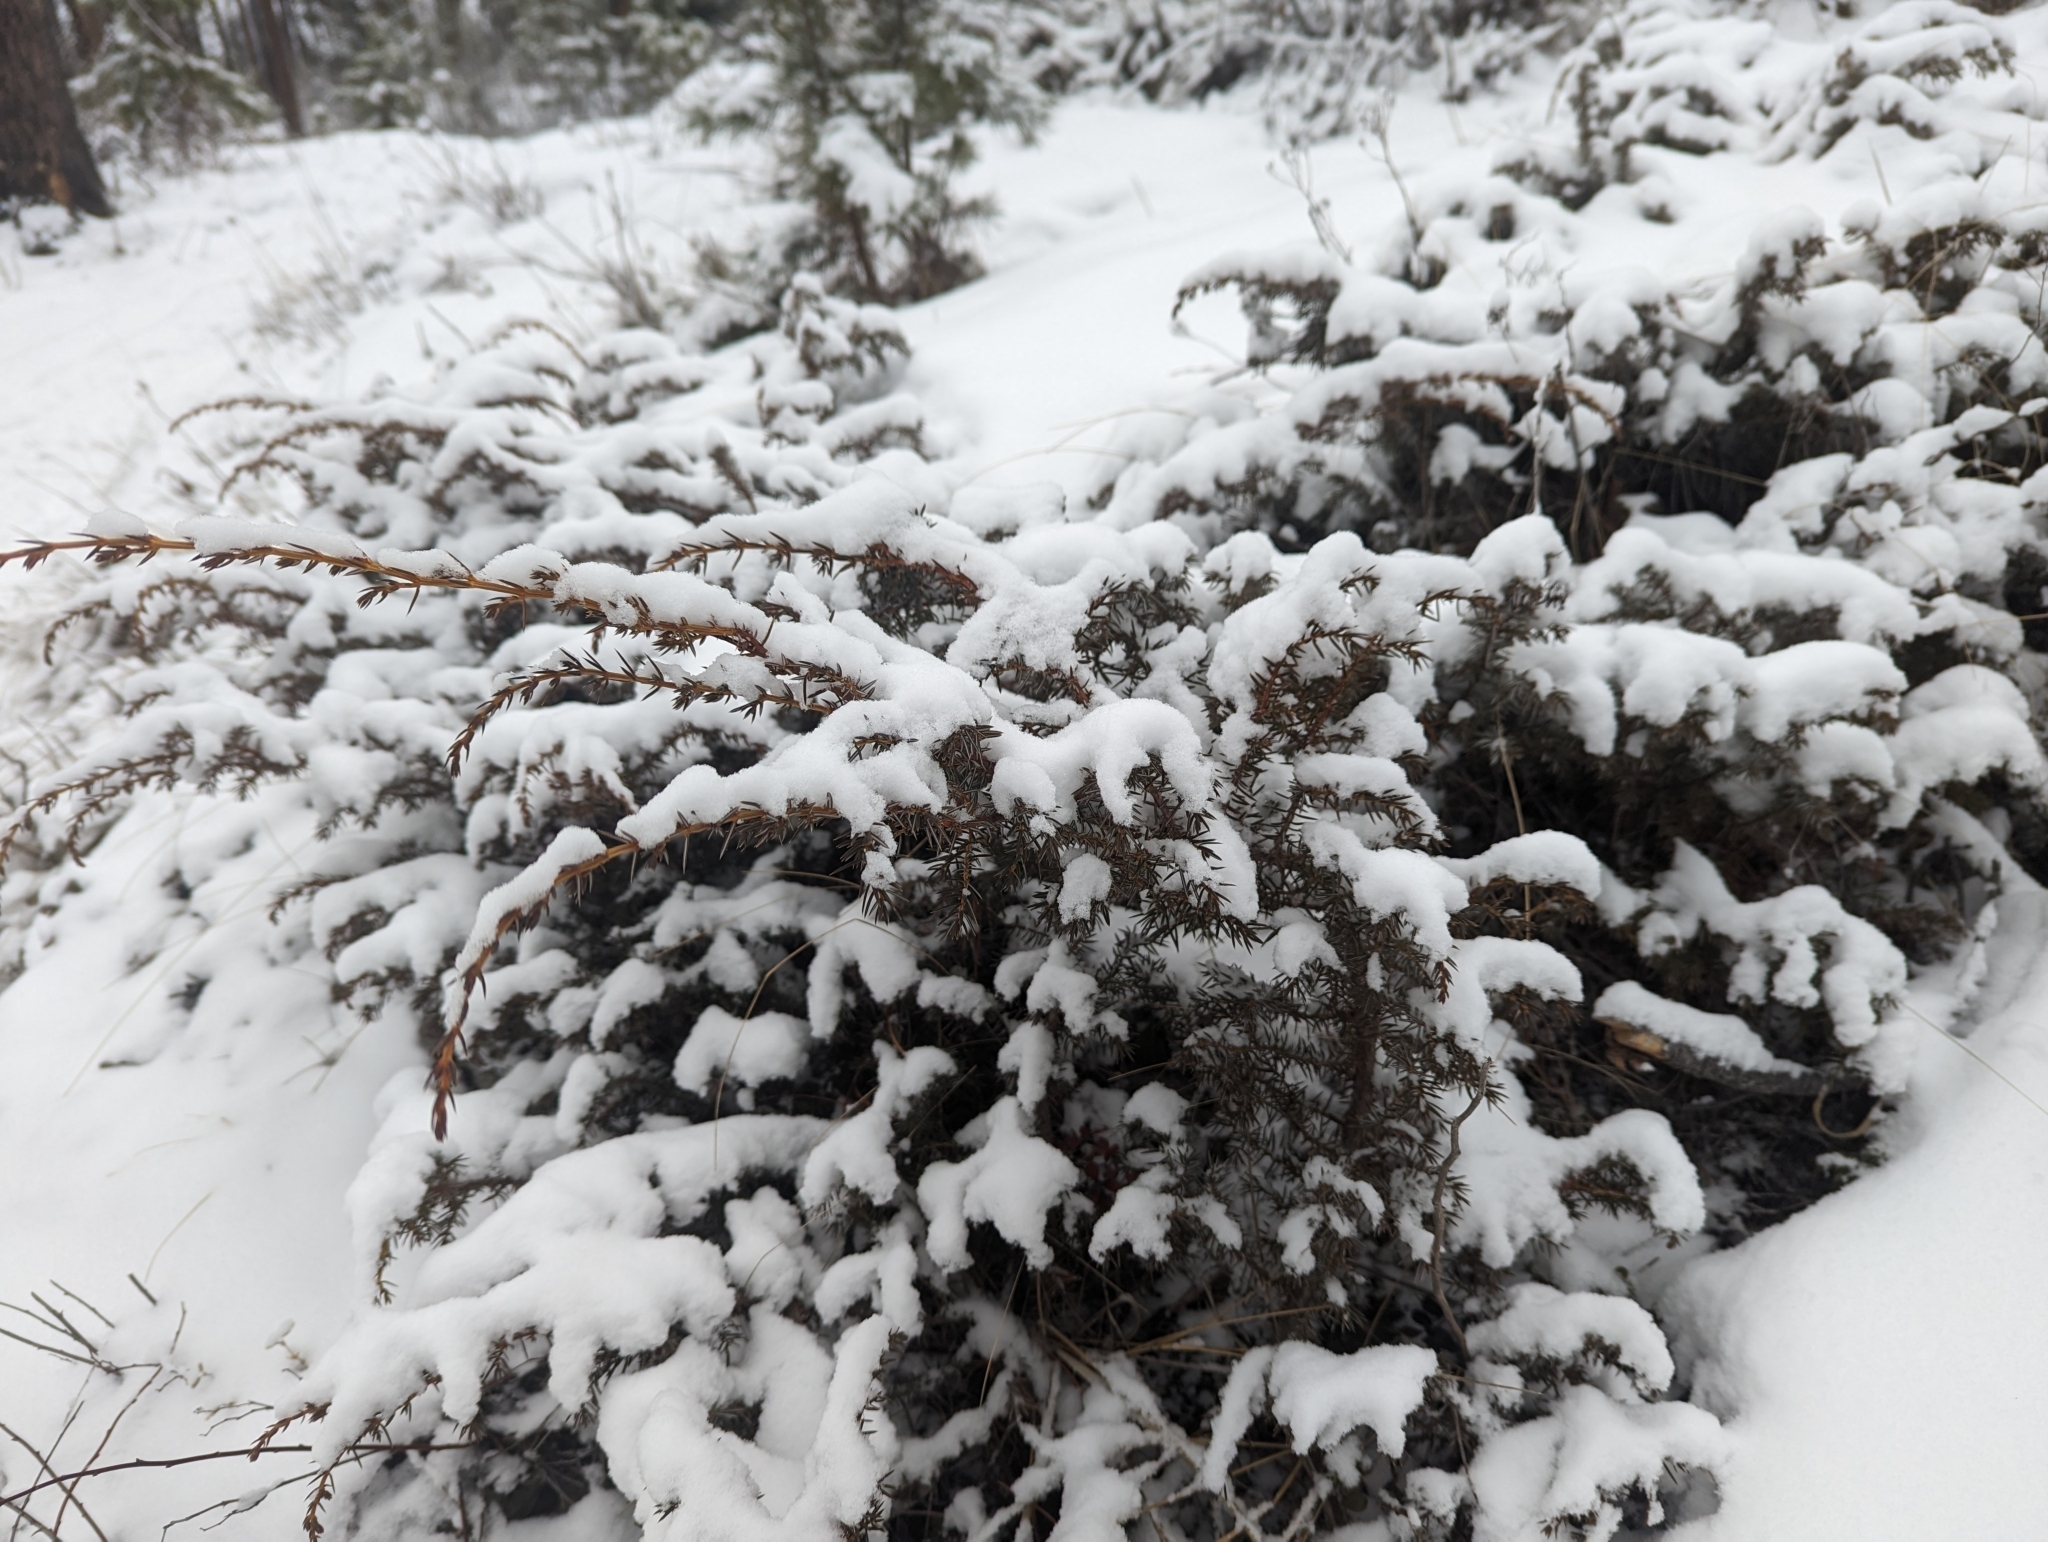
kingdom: Plantae
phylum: Tracheophyta
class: Pinopsida
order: Pinales
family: Cupressaceae
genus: Juniperus
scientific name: Juniperus communis
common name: Common juniper
